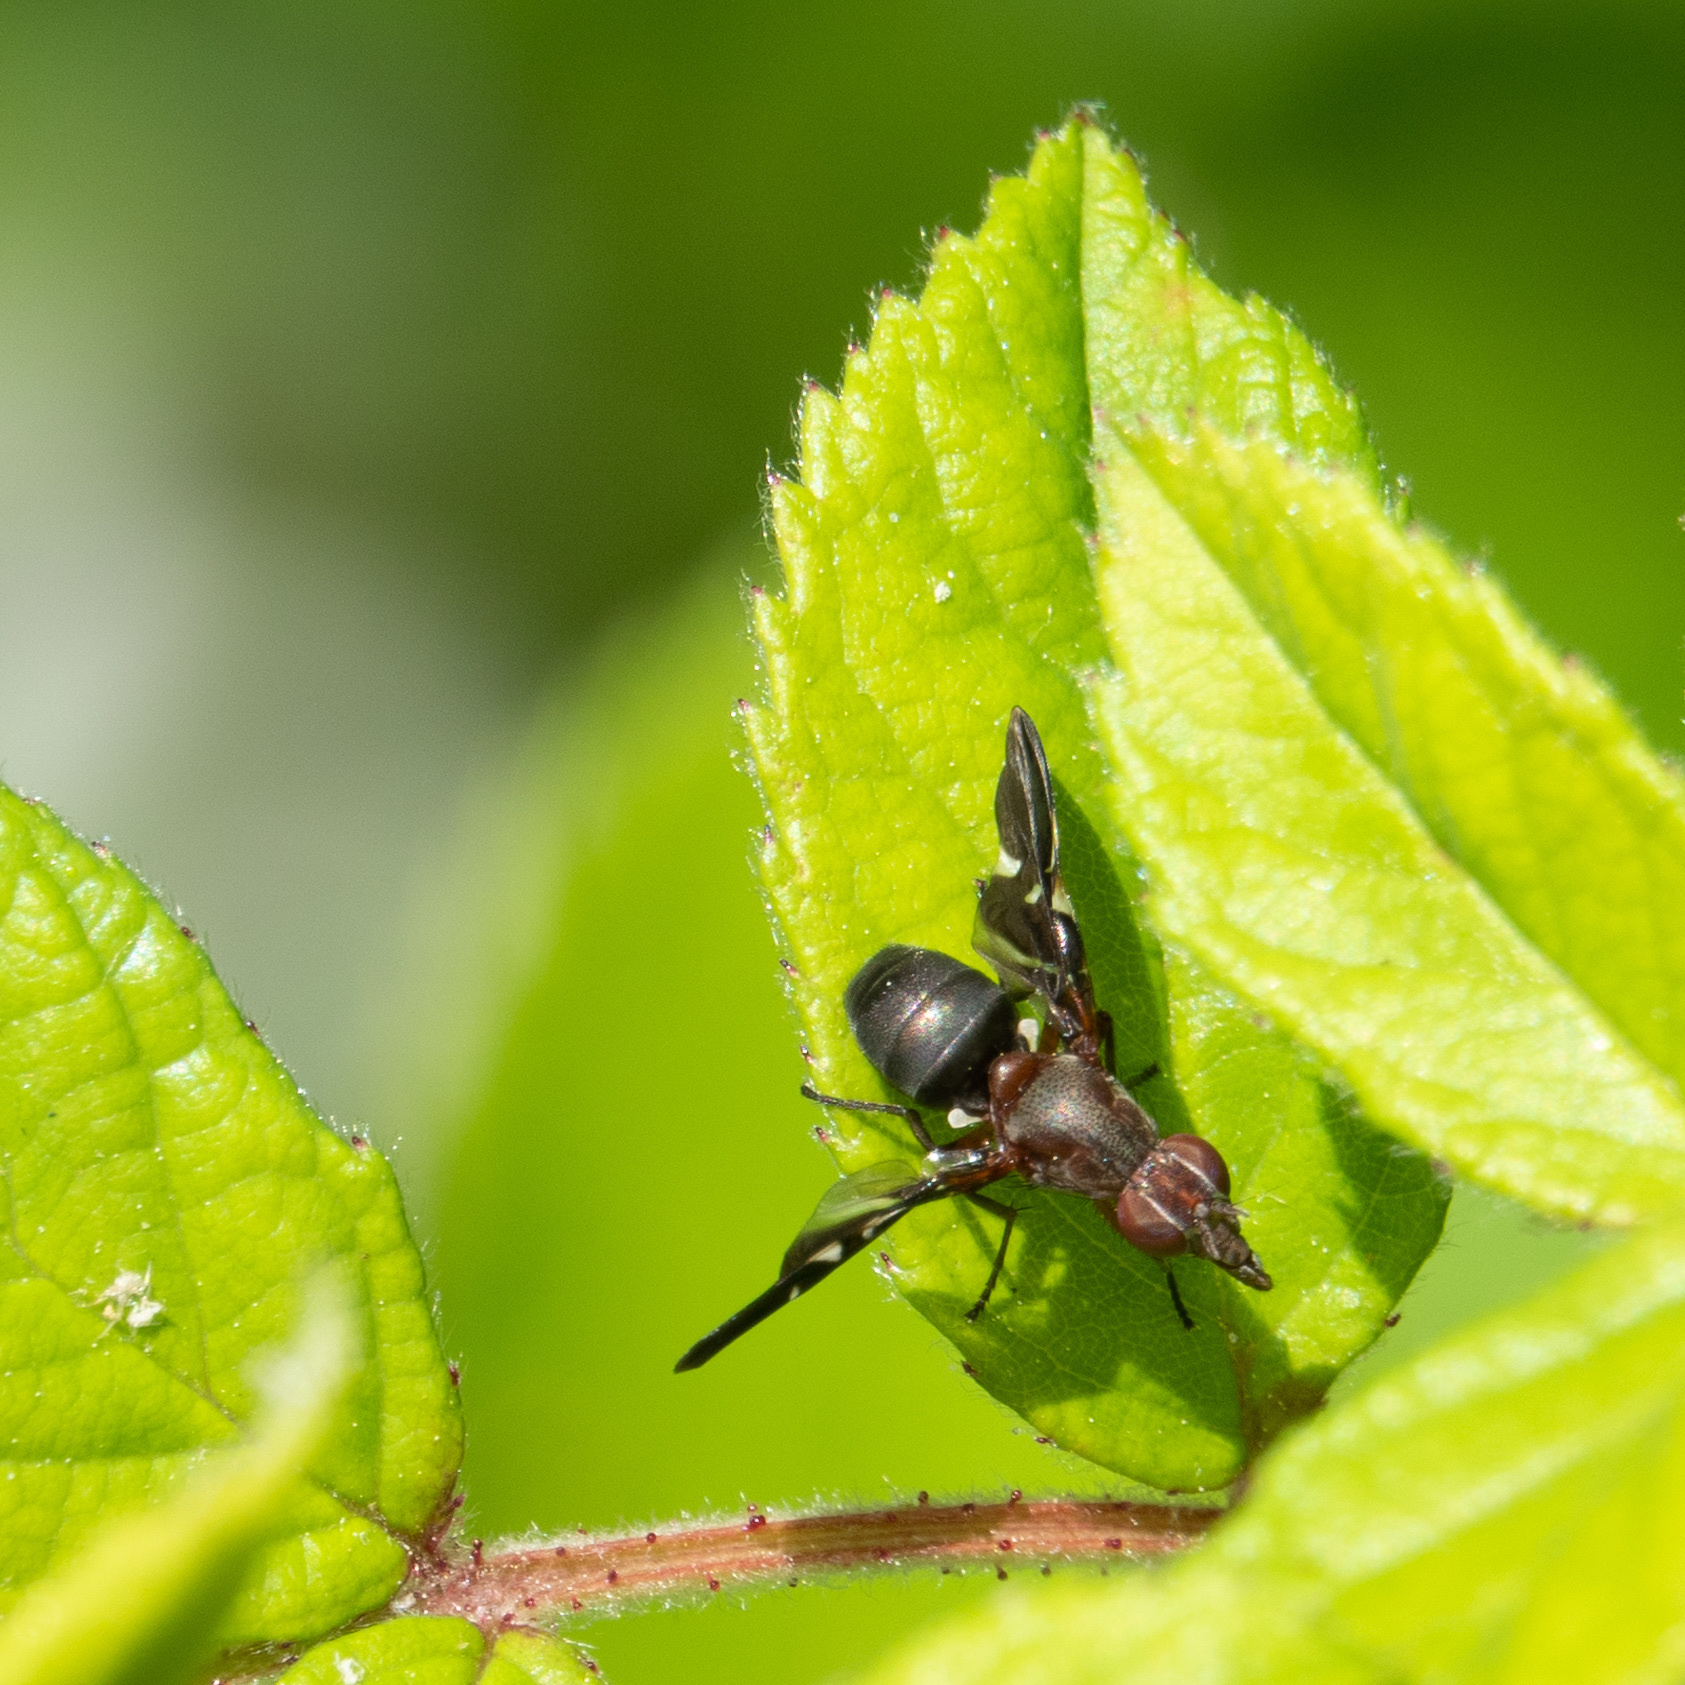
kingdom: Animalia
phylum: Arthropoda
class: Insecta
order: Diptera
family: Ulidiidae
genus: Delphinia
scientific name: Delphinia picta
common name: Common picture-winged fly
